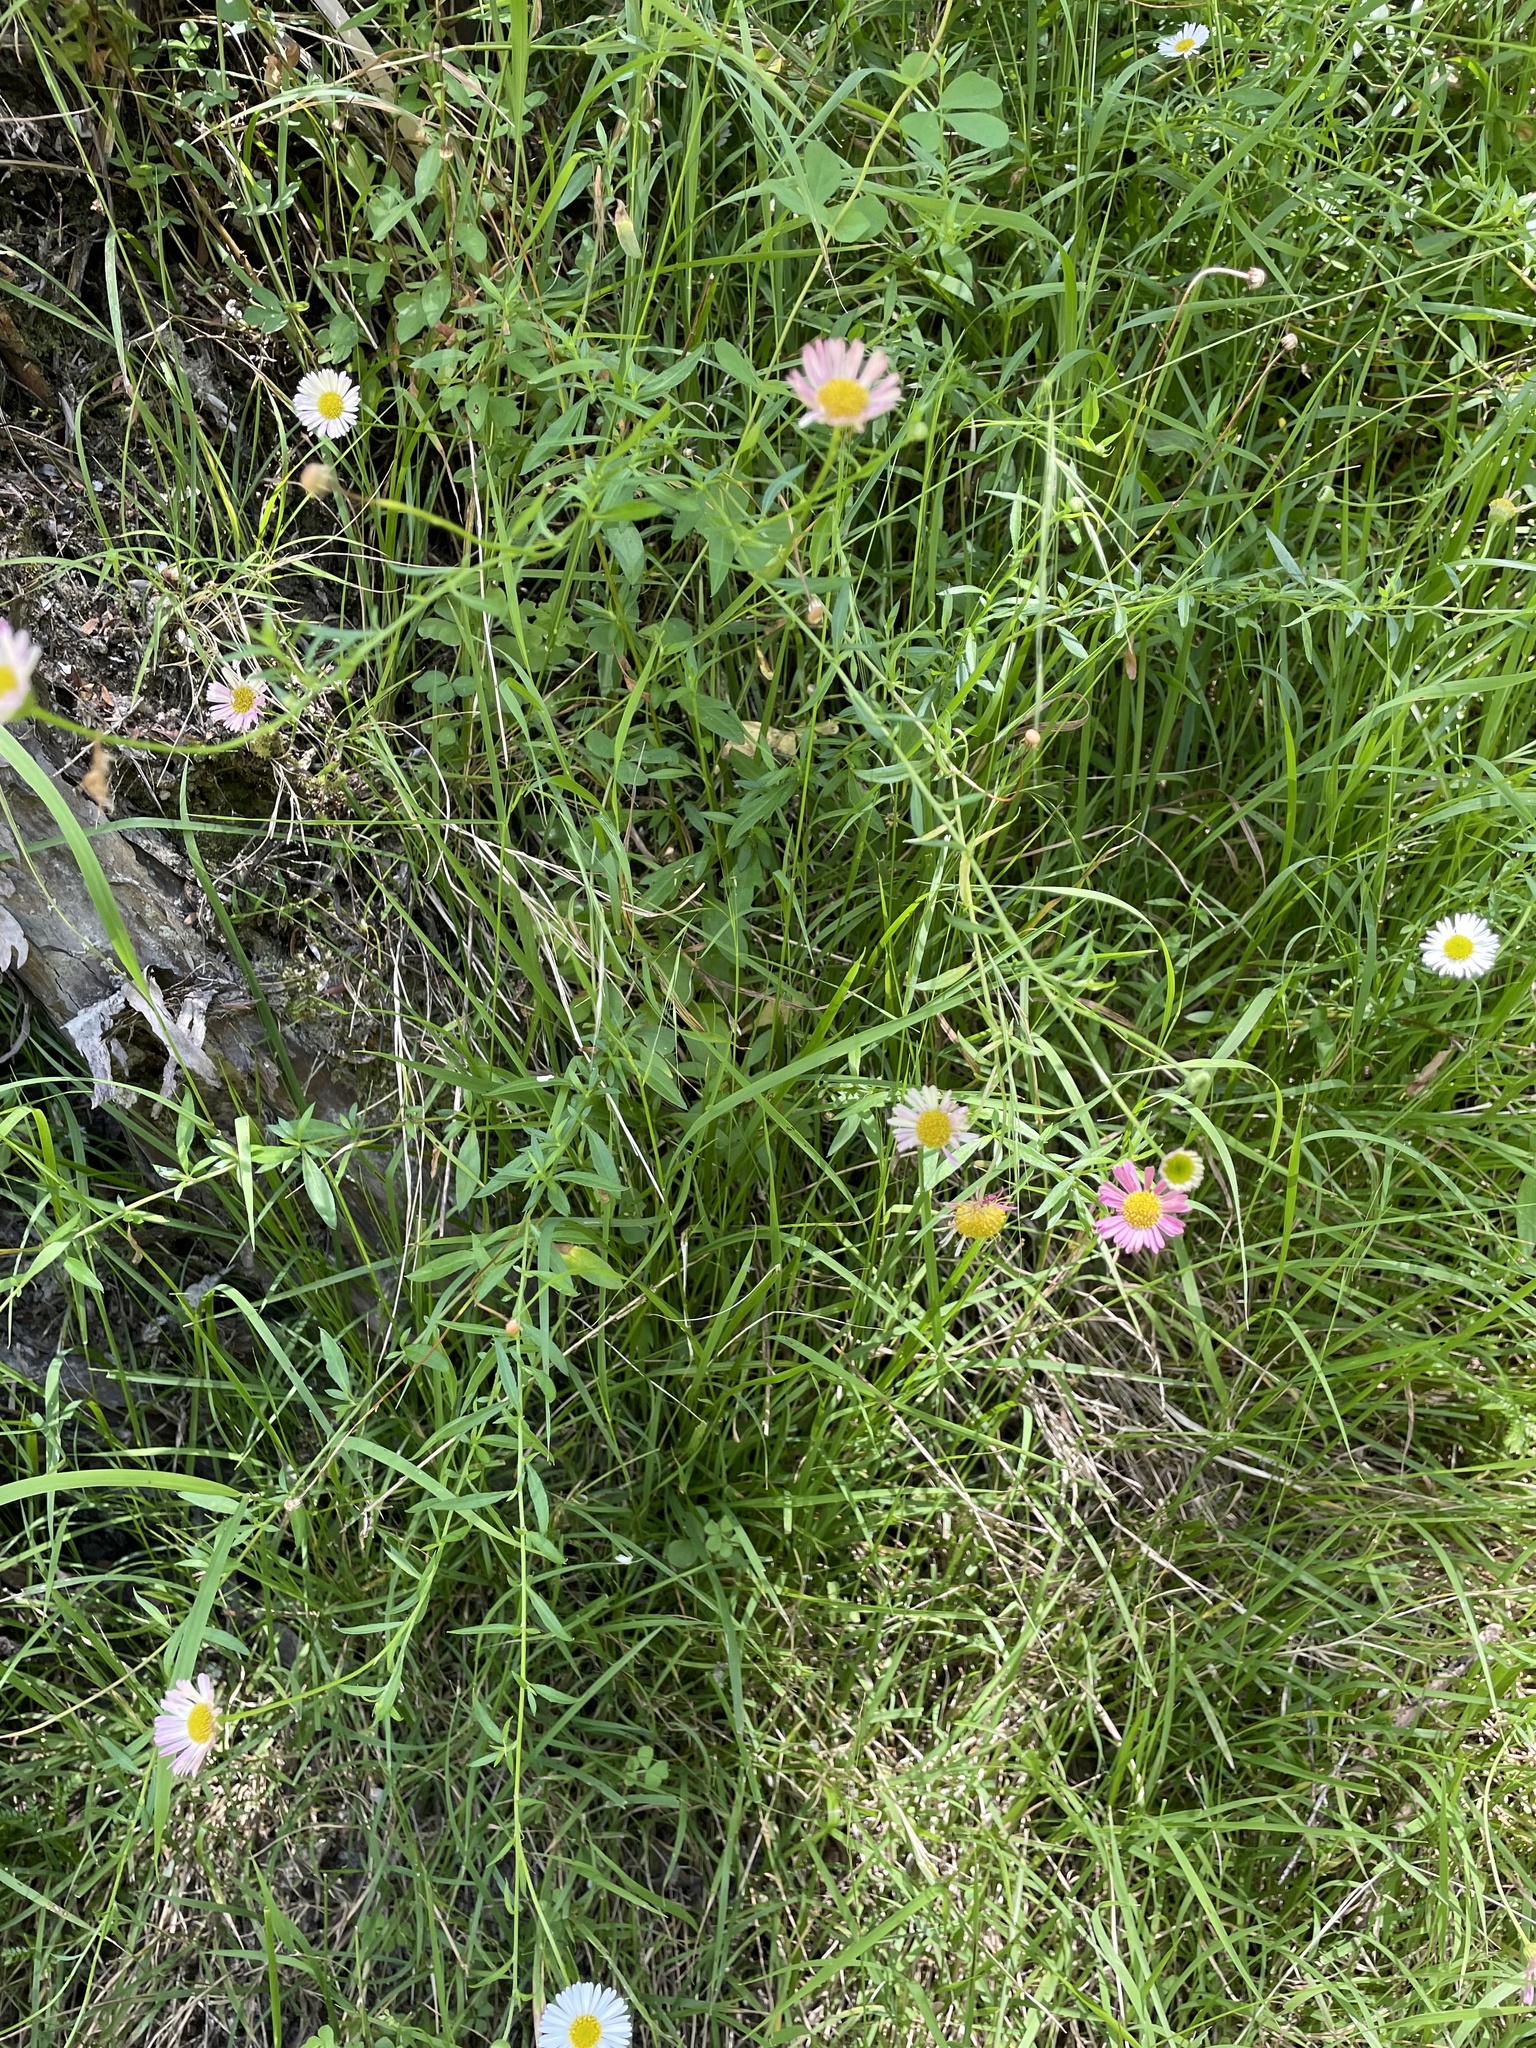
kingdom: Plantae
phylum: Tracheophyta
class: Magnoliopsida
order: Asterales
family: Asteraceae
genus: Erigeron
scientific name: Erigeron karvinskianus
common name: Mexican fleabane
